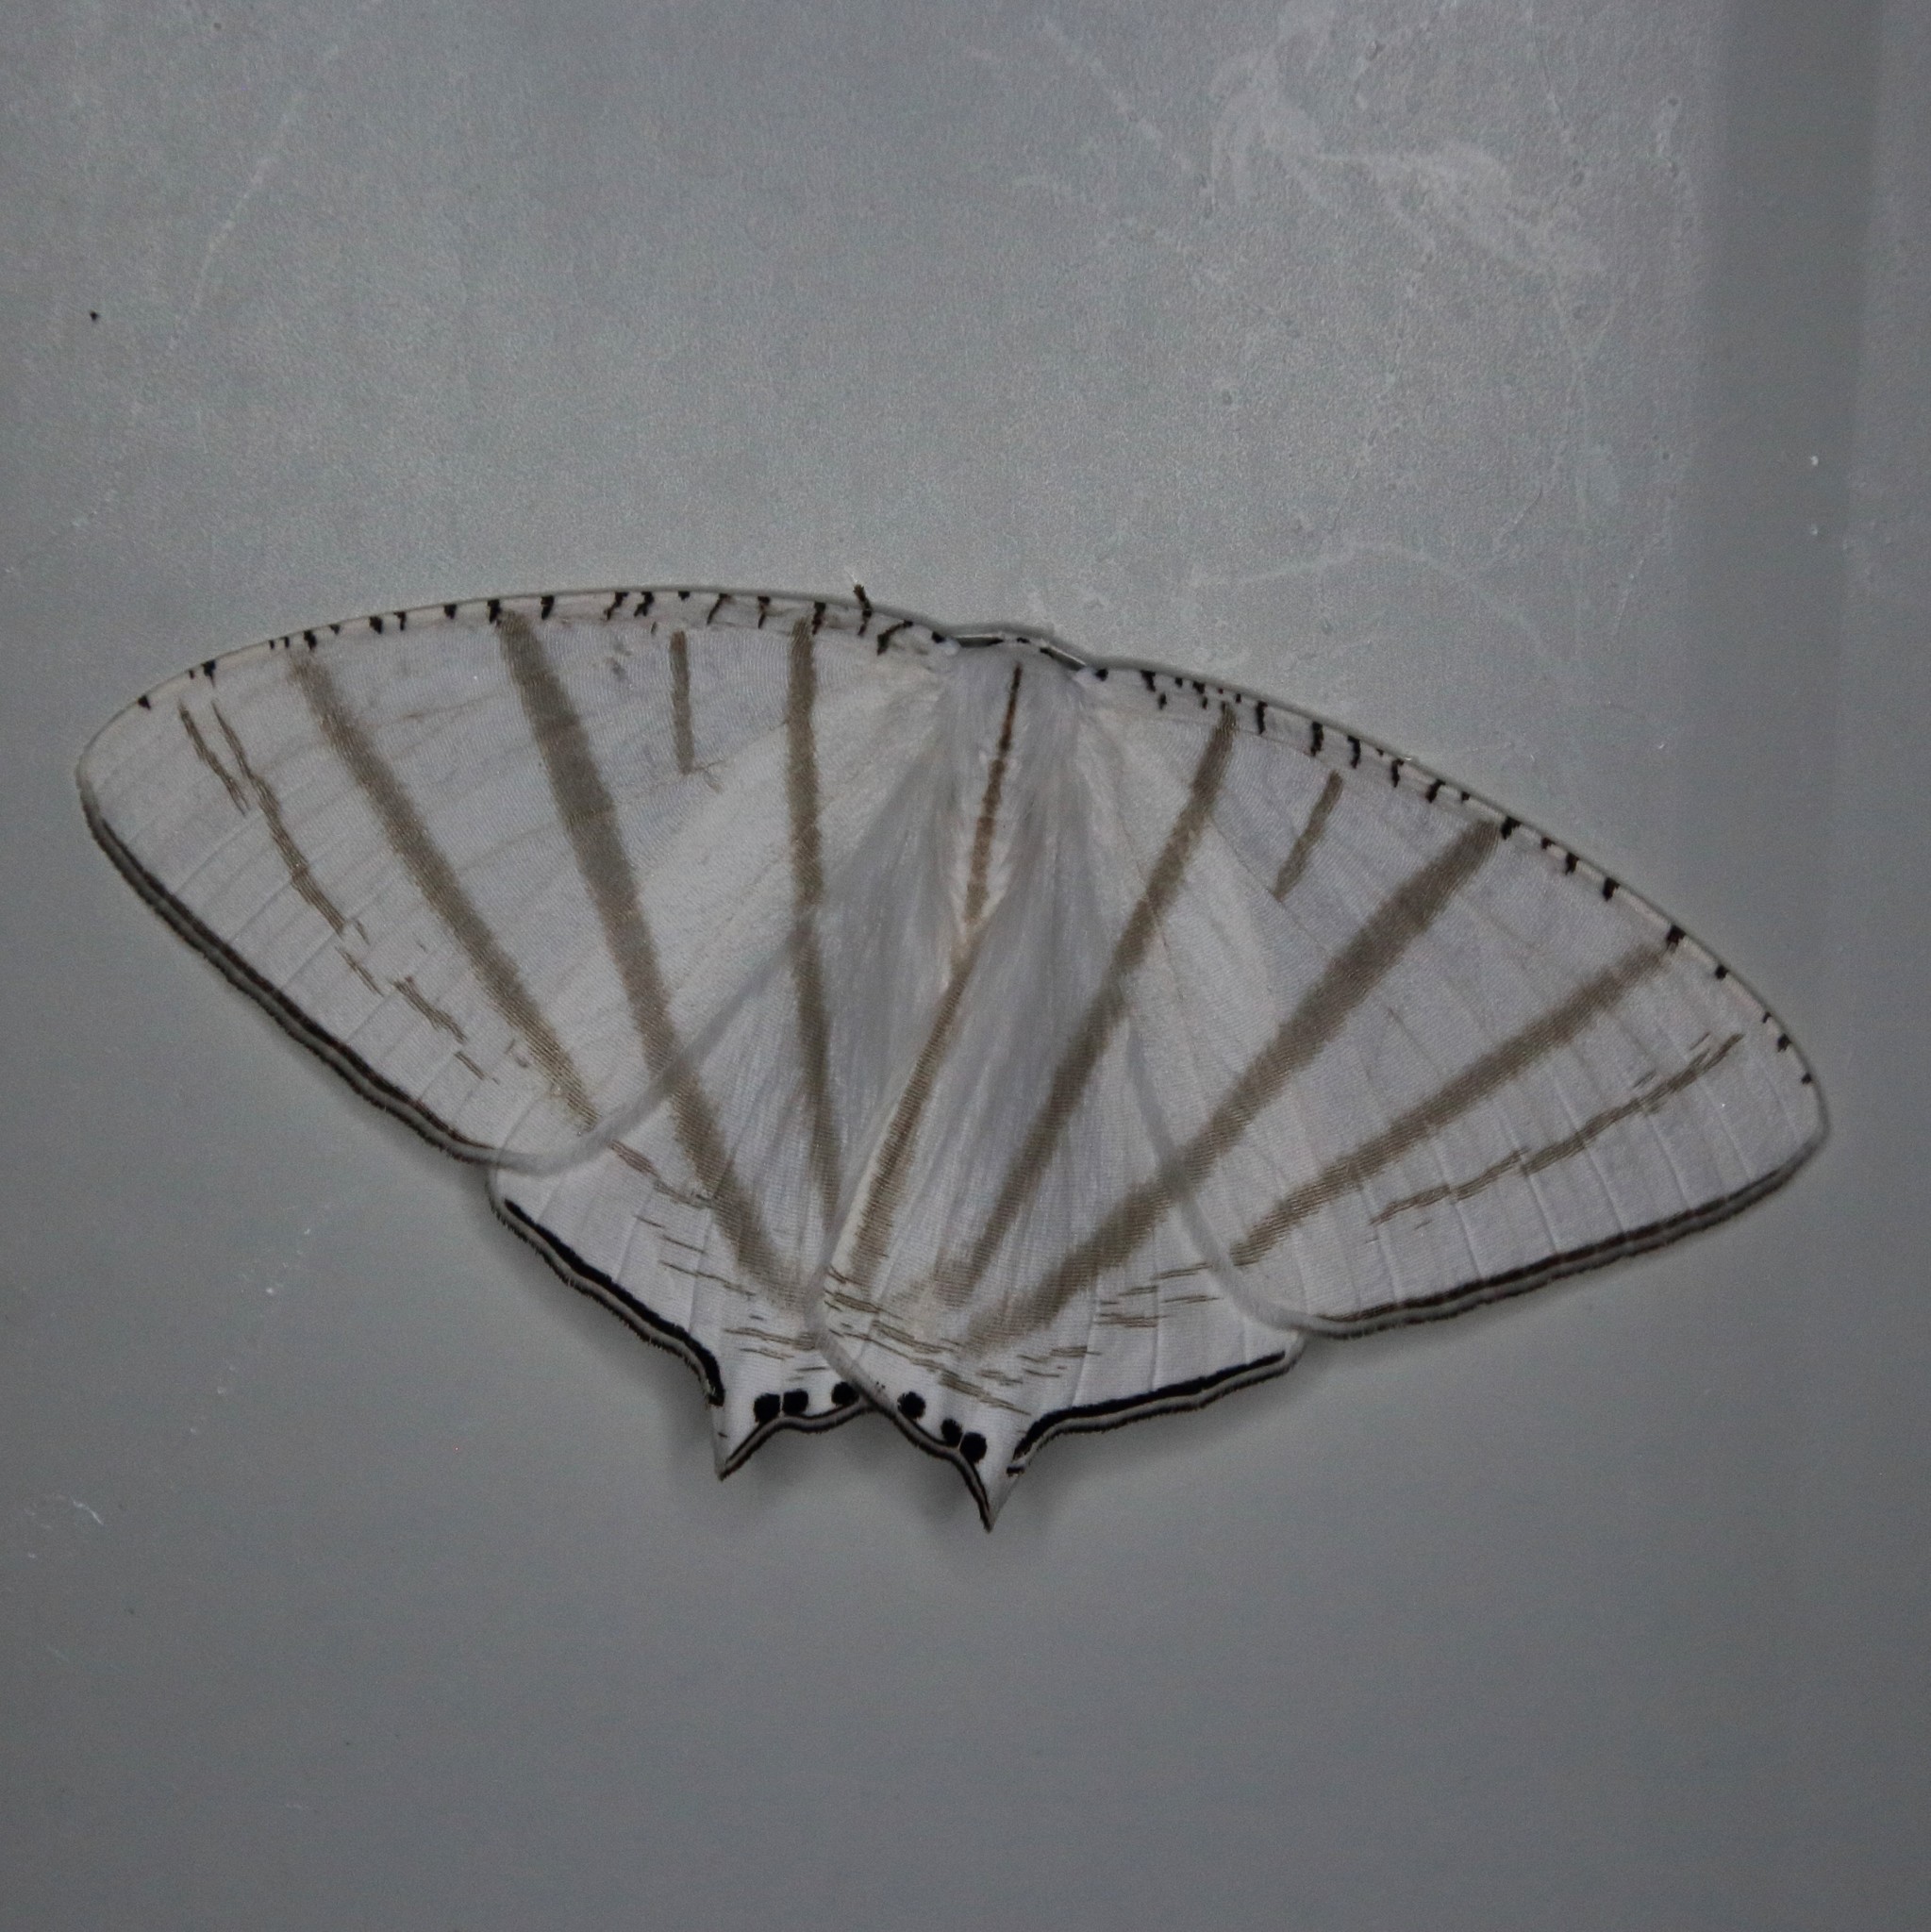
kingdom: Animalia
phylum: Arthropoda
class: Insecta
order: Lepidoptera
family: Uraniidae
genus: Urapteroides
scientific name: Urapteroides astheniata
